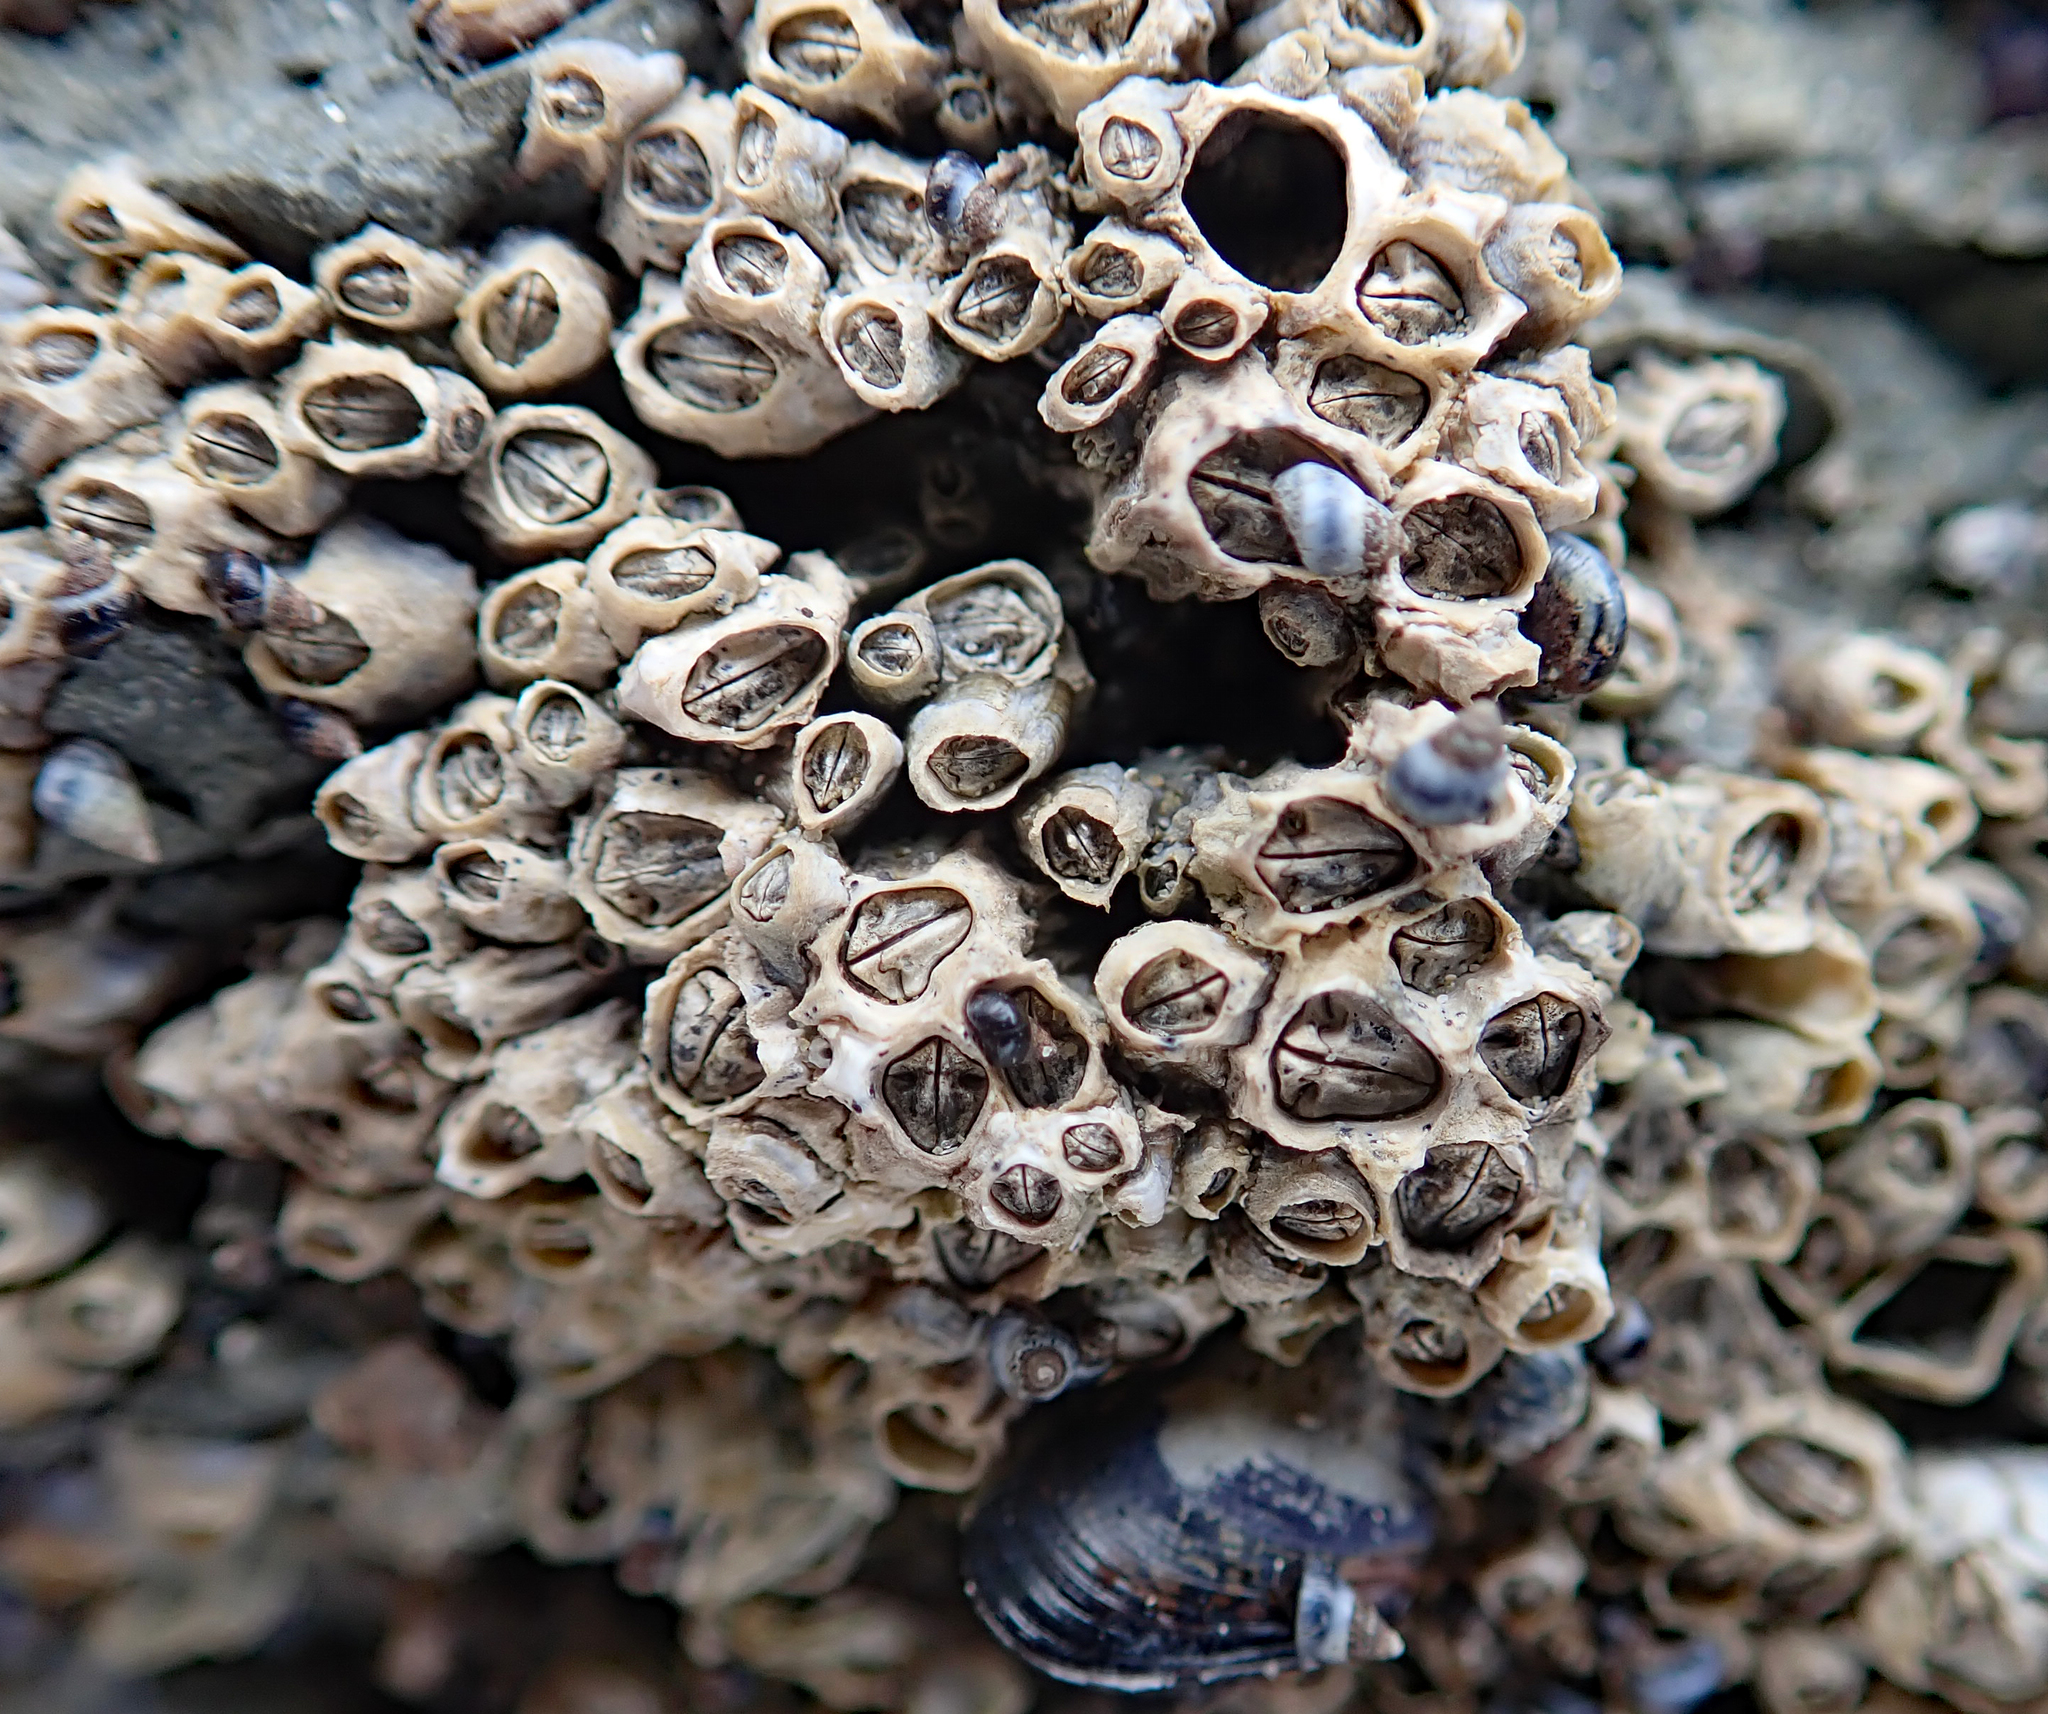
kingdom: Animalia
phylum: Arthropoda
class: Maxillopoda
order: Sessilia
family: Chthamalidae
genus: Chamaesipho
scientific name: Chamaesipho columna
